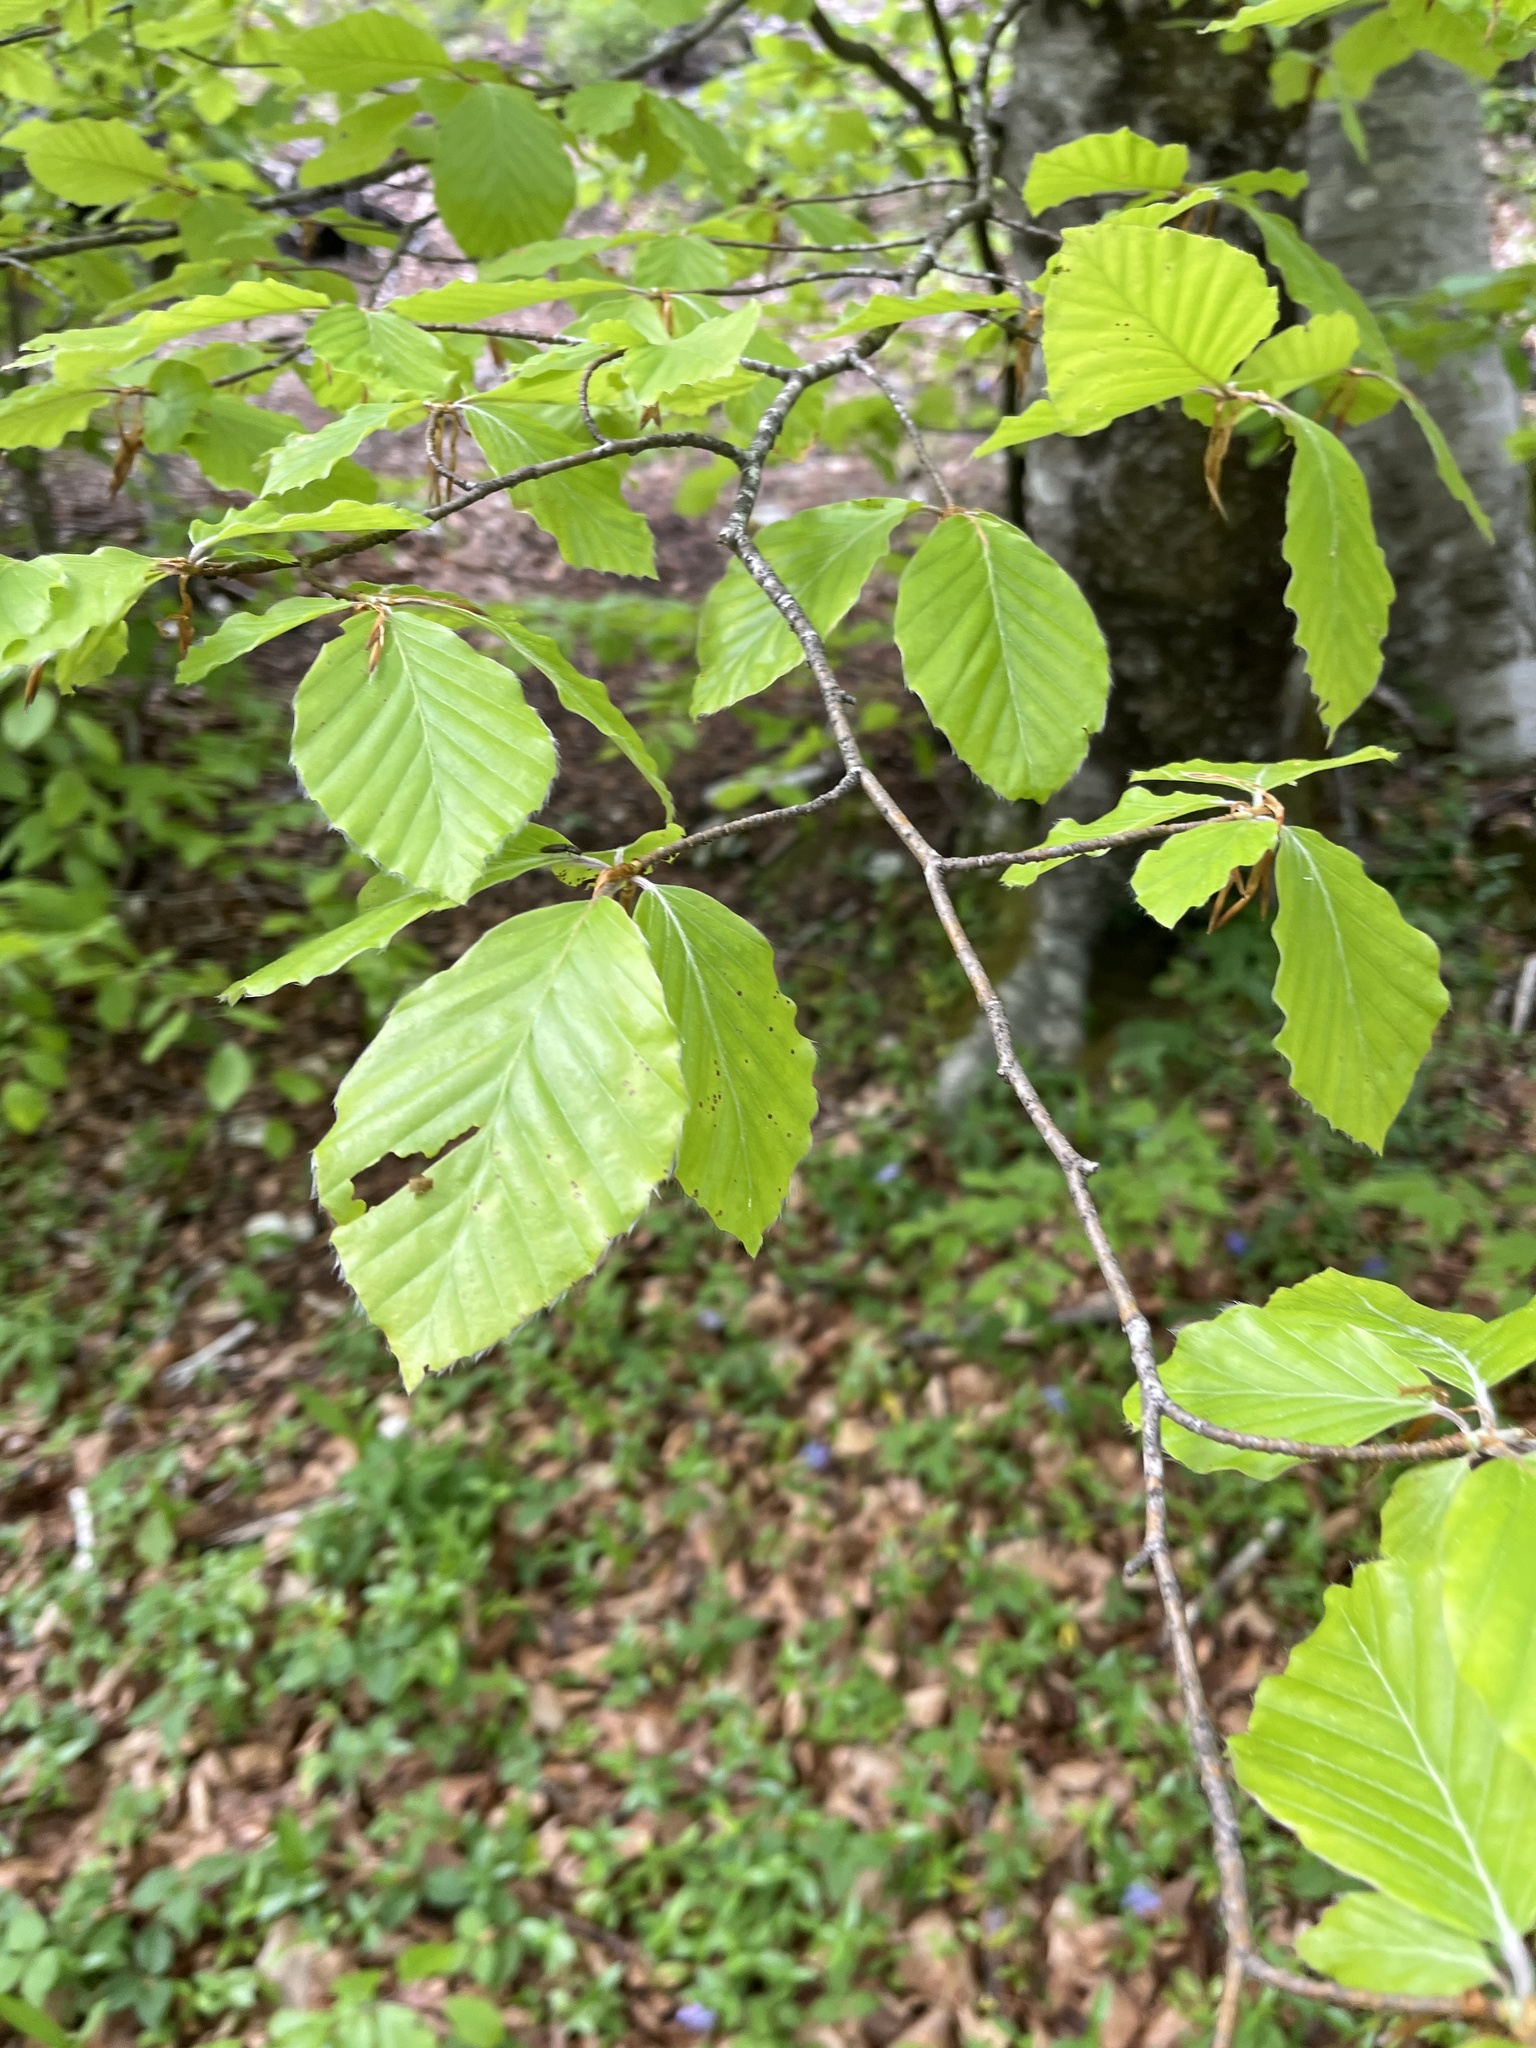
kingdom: Plantae
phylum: Tracheophyta
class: Magnoliopsida
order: Fagales
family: Fagaceae
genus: Fagus
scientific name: Fagus sylvatica
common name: Beech
